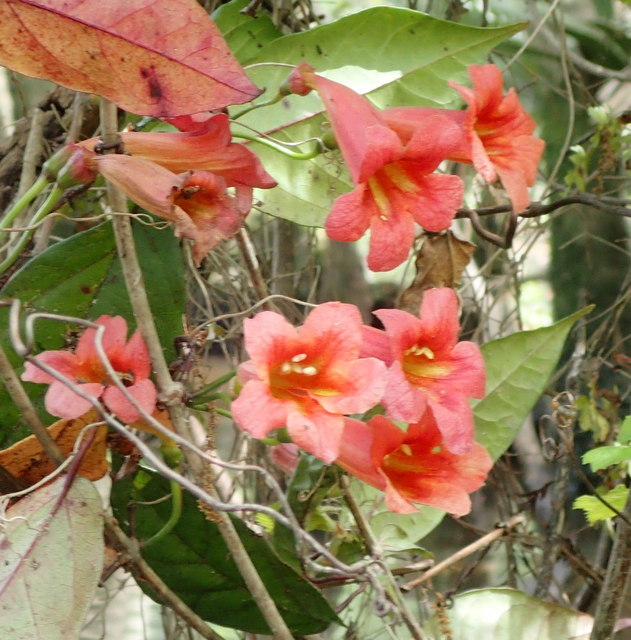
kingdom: Plantae
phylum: Tracheophyta
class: Magnoliopsida
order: Lamiales
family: Bignoniaceae
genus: Bignonia
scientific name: Bignonia capreolata
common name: Crossvine
